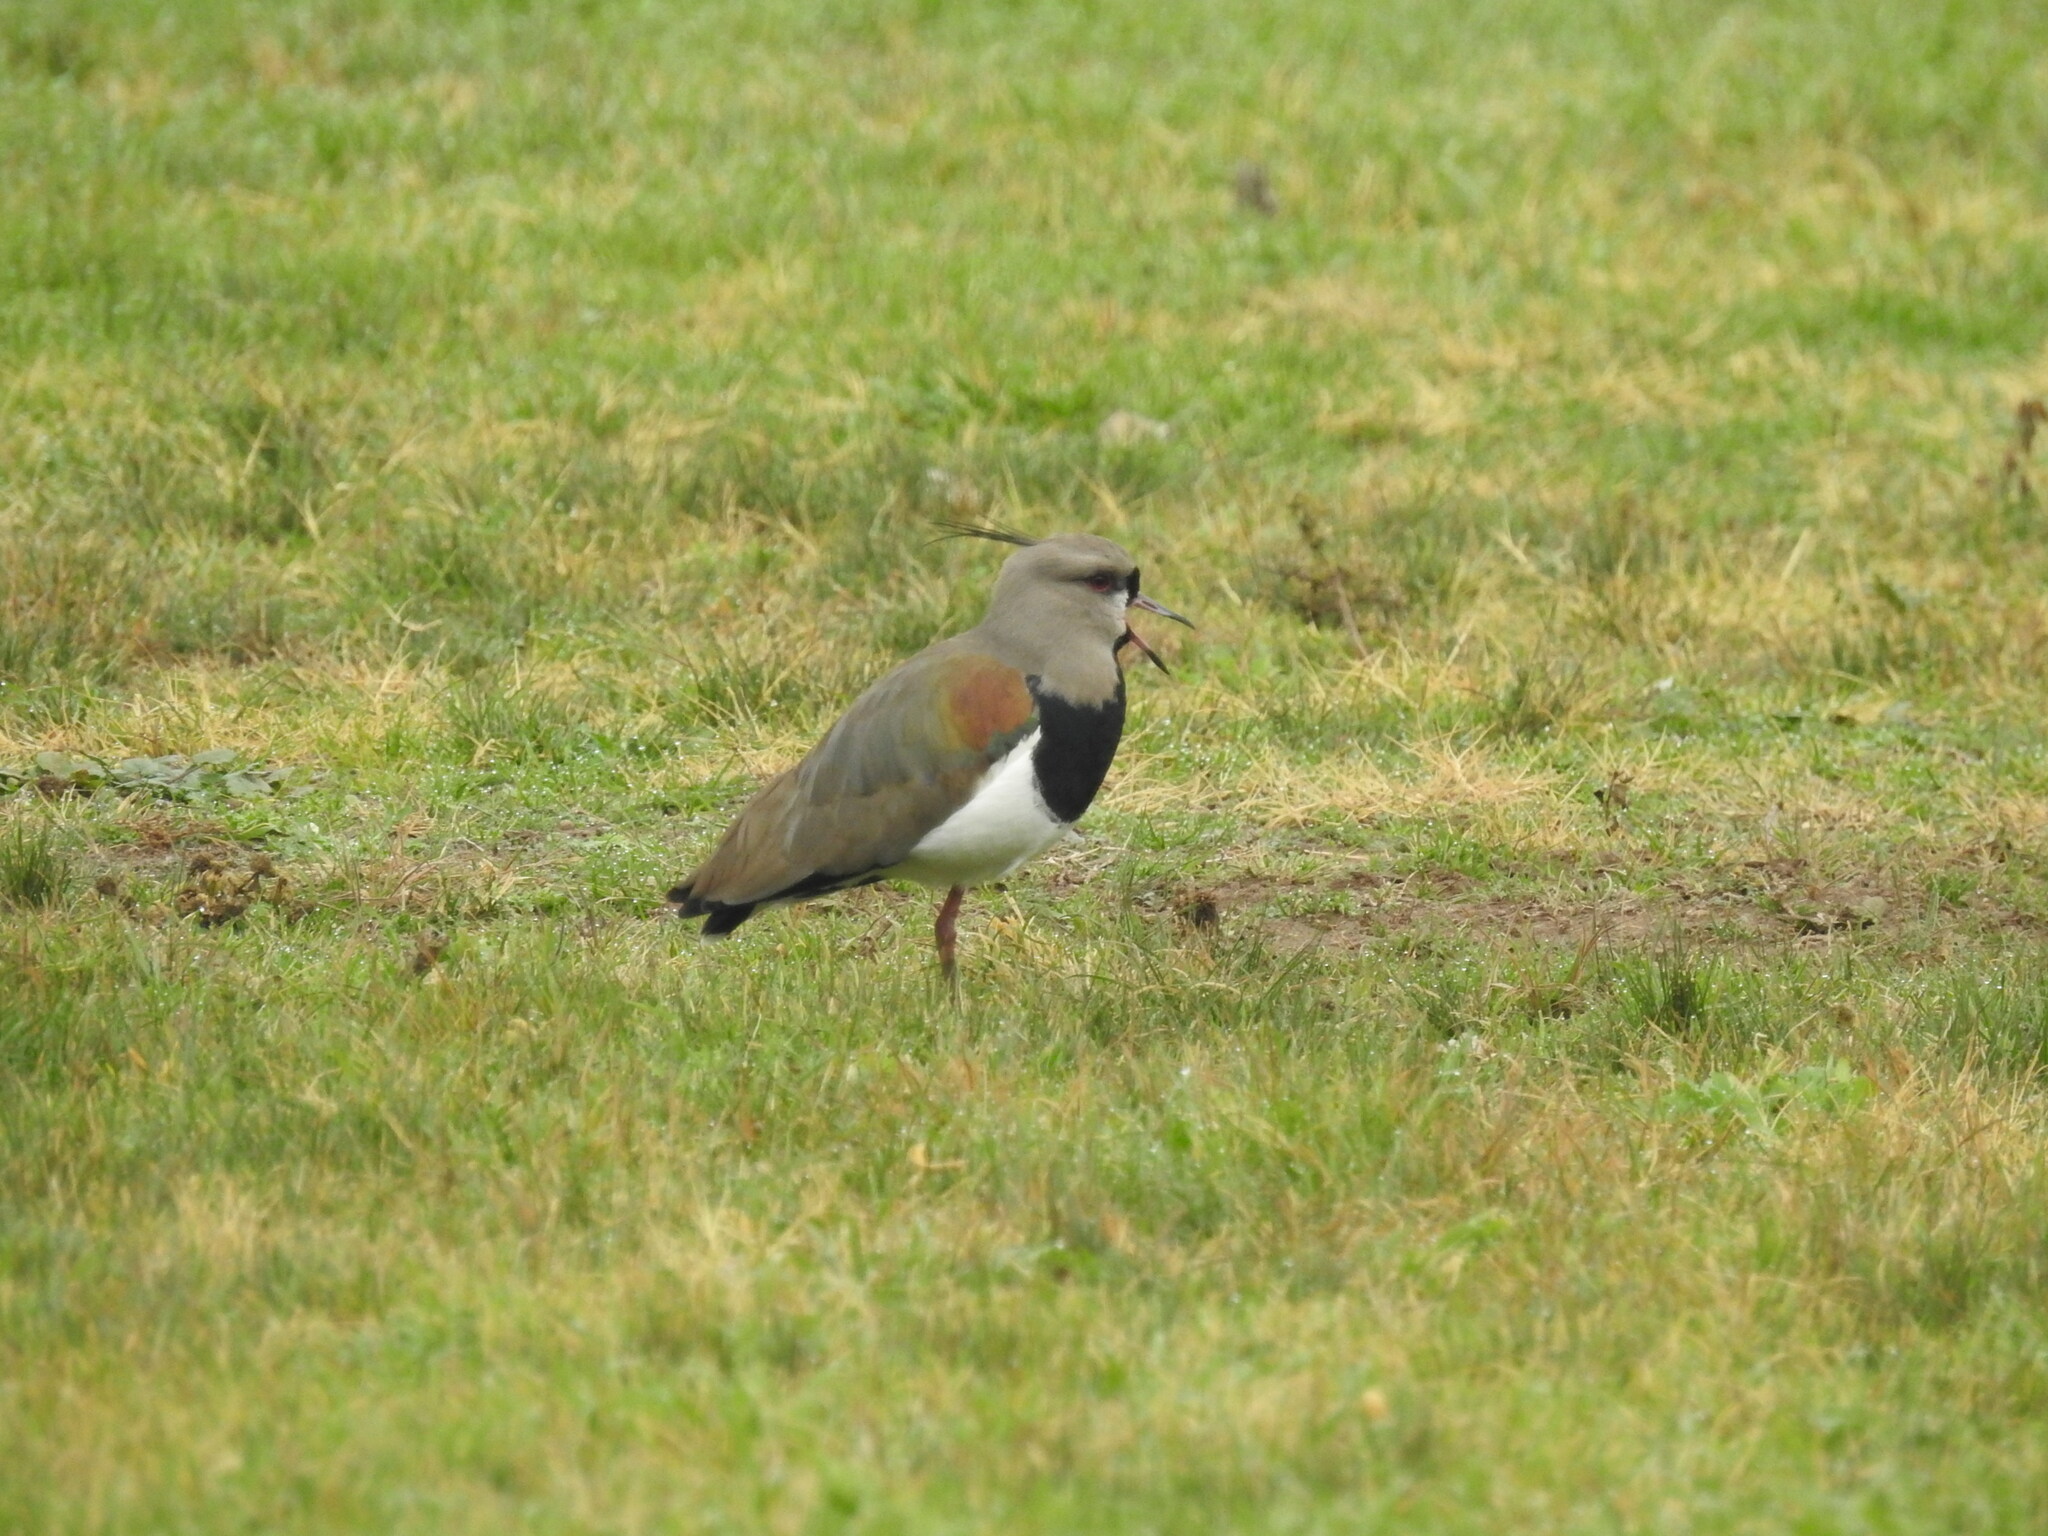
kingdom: Animalia
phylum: Chordata
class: Aves
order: Charadriiformes
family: Charadriidae
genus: Vanellus
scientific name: Vanellus chilensis
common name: Southern lapwing
